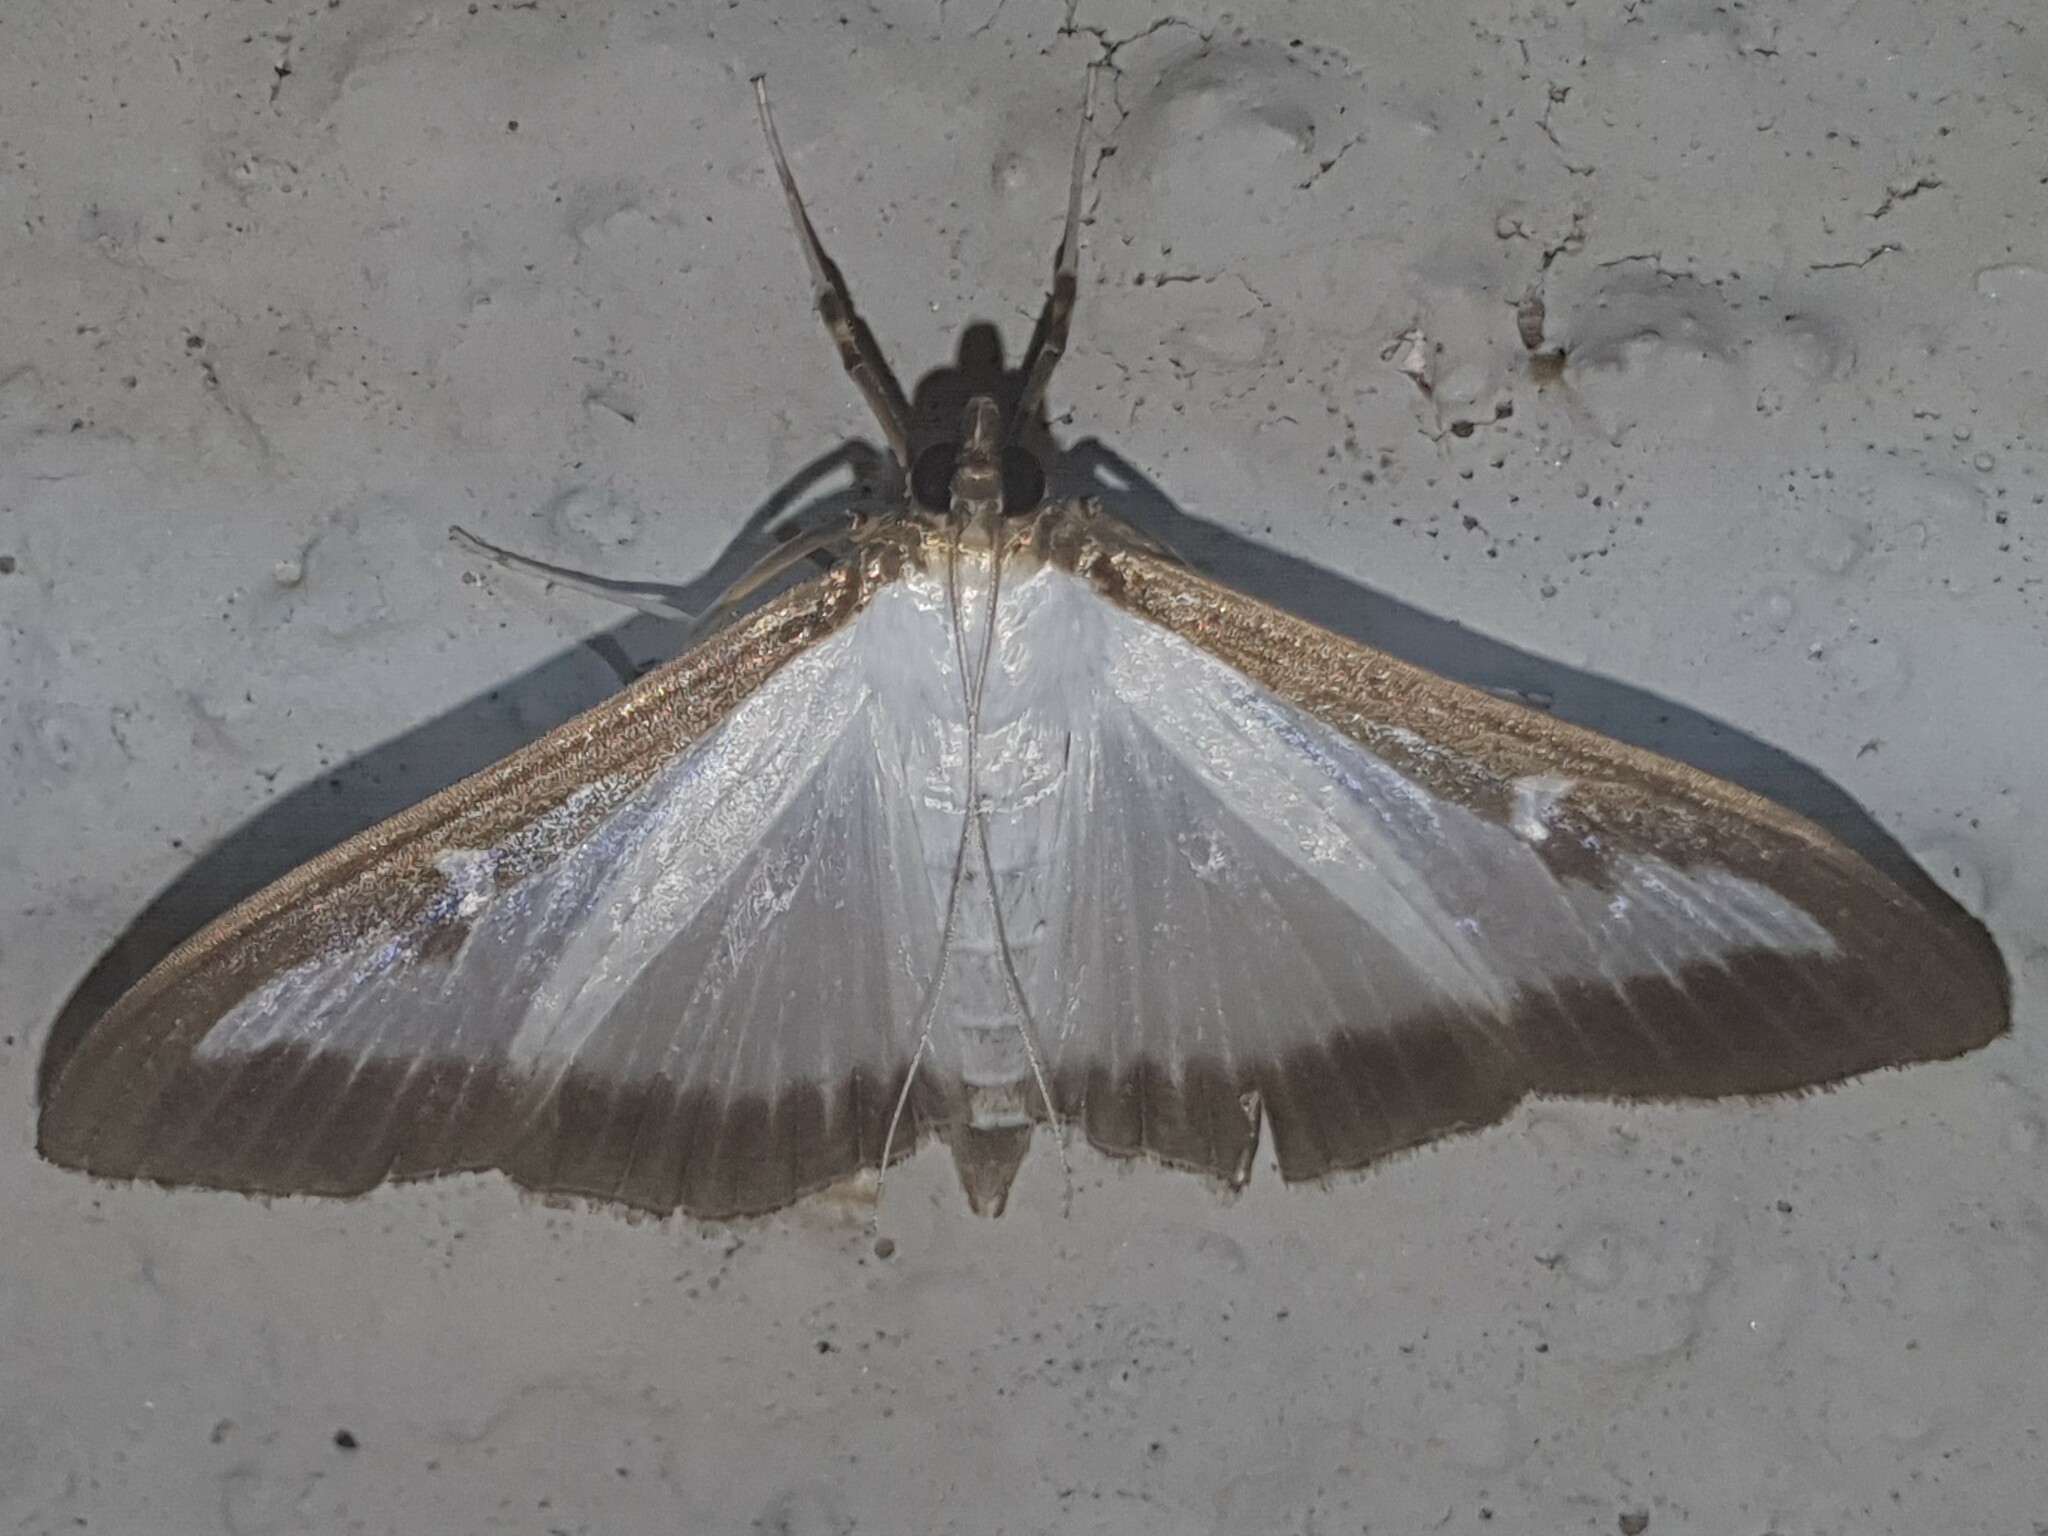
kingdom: Animalia
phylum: Arthropoda
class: Insecta
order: Lepidoptera
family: Crambidae
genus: Cydalima
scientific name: Cydalima perspectalis
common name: Box tree moth
